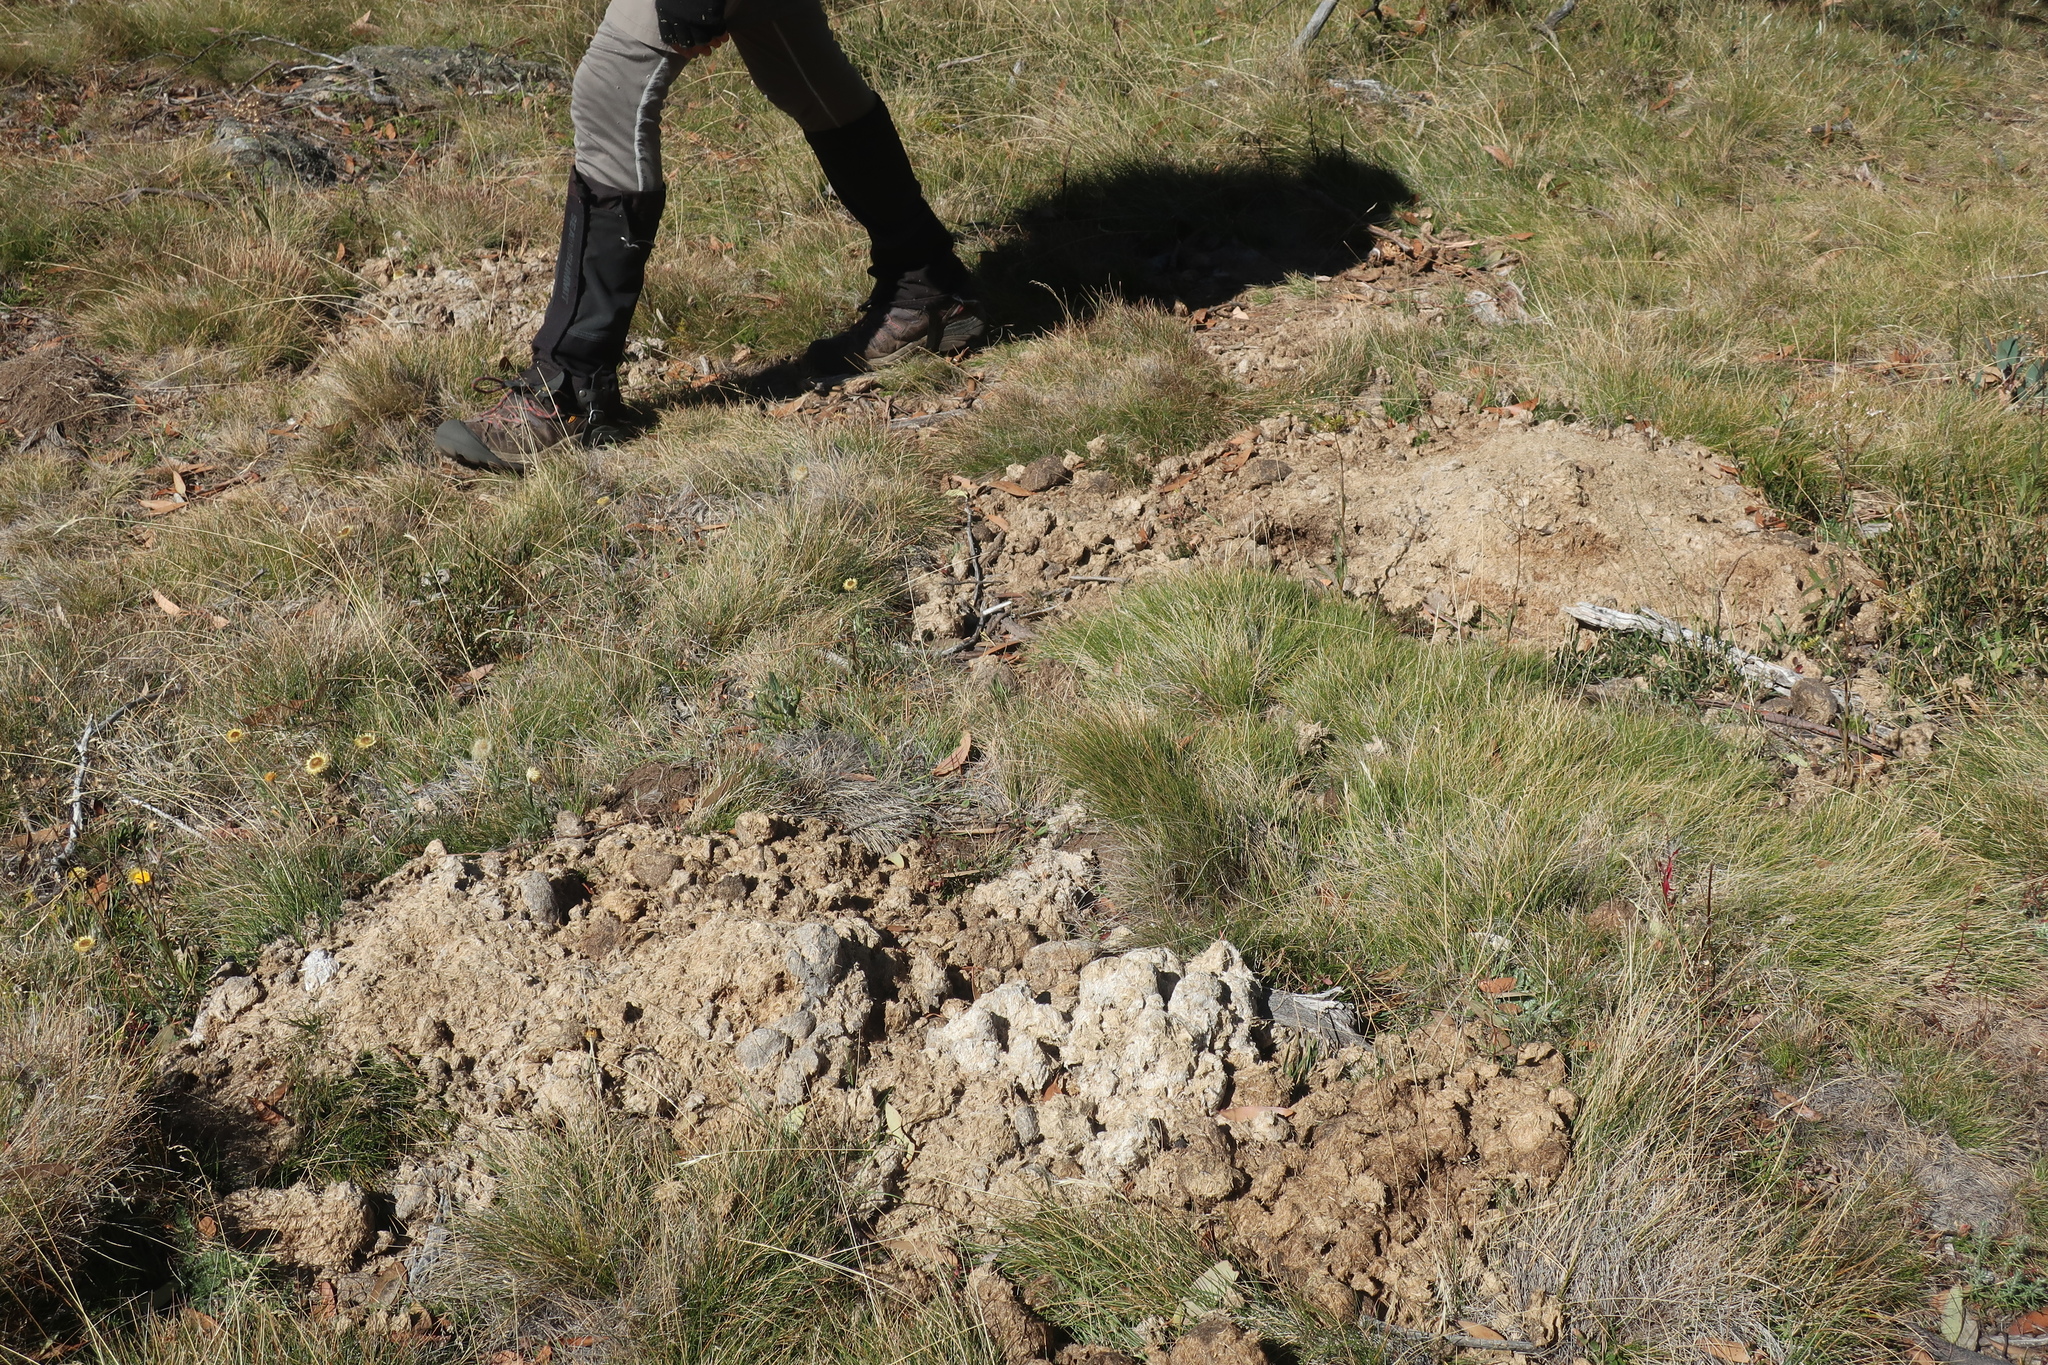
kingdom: Animalia
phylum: Chordata
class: Mammalia
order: Perissodactyla
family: Equidae
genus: Equus
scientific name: Equus caballus
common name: Horse
